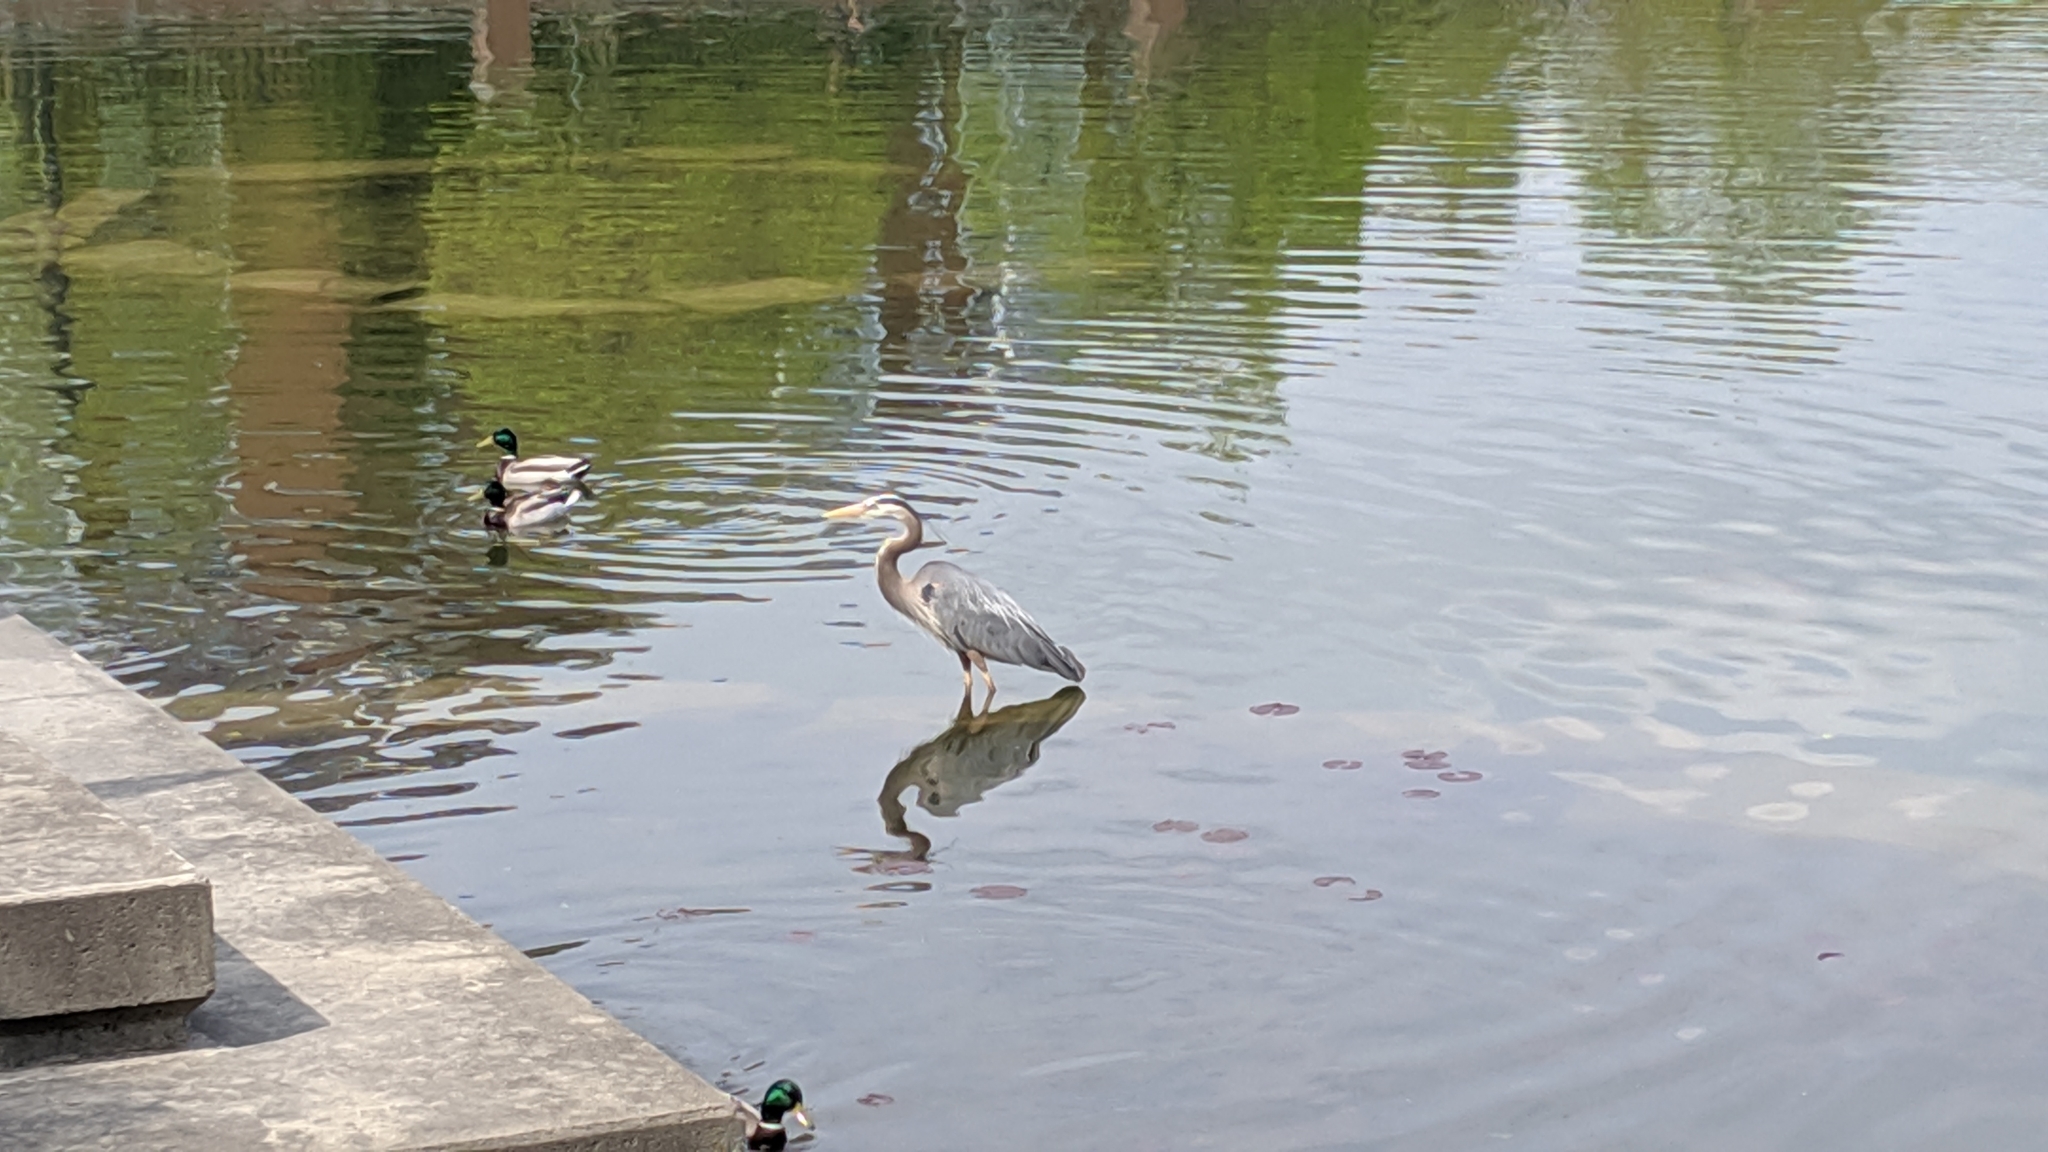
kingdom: Animalia
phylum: Chordata
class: Aves
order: Pelecaniformes
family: Ardeidae
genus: Ardea
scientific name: Ardea herodias
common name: Great blue heron
